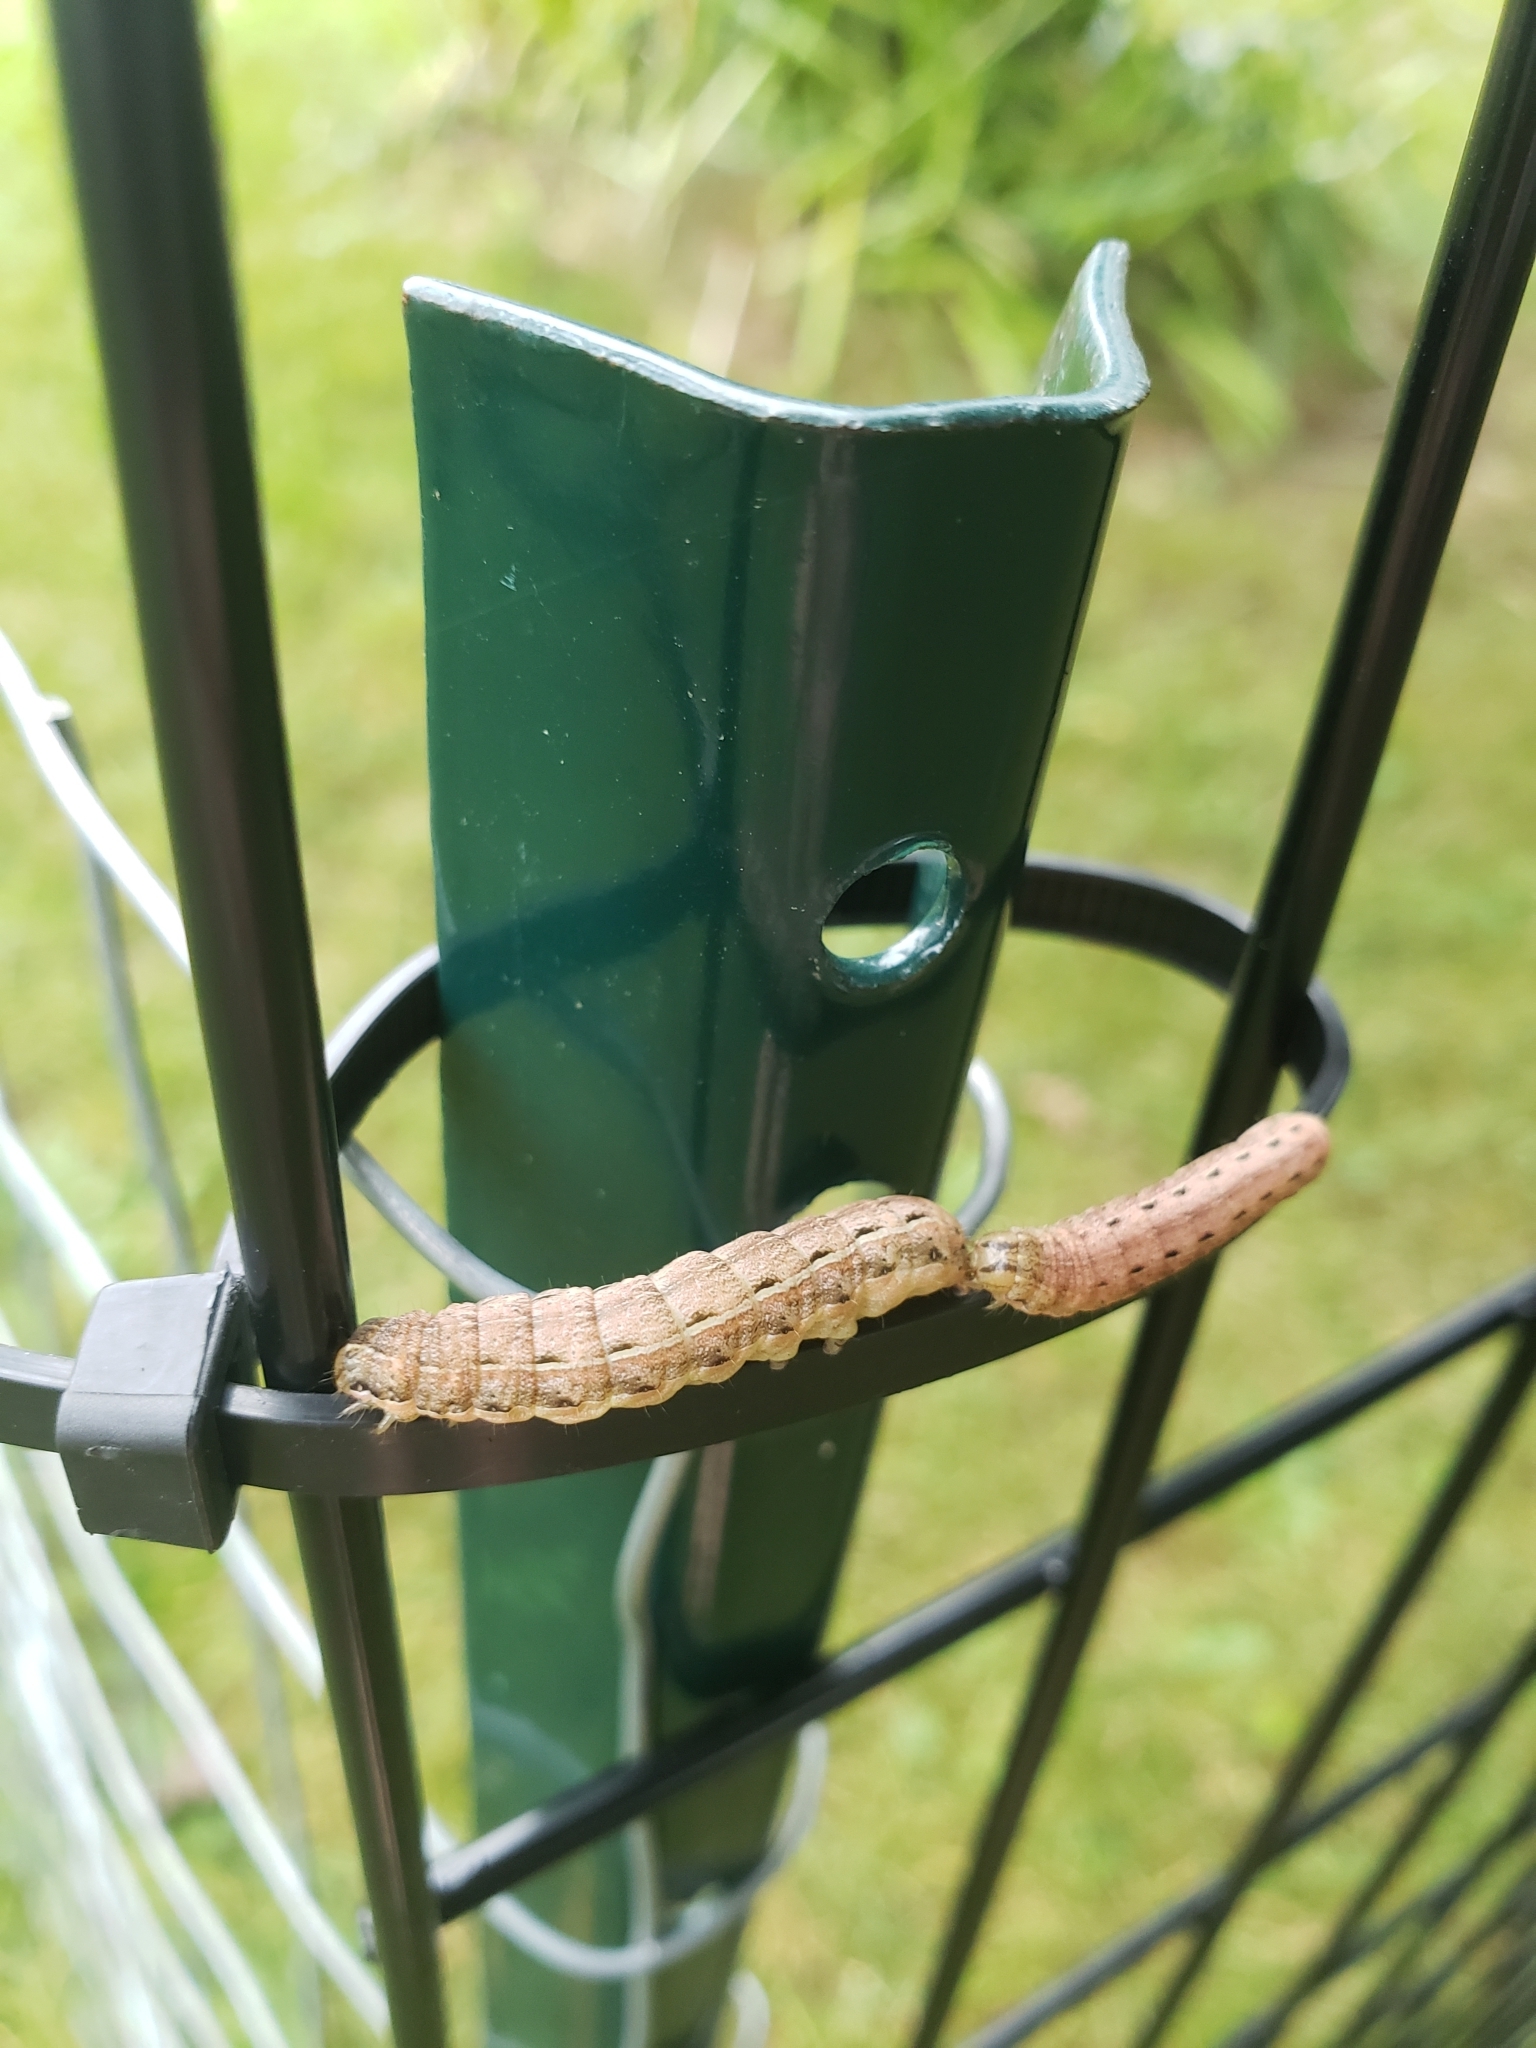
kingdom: Animalia
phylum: Arthropoda
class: Insecta
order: Lepidoptera
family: Noctuidae
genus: Noctua
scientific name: Noctua pronuba
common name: Large yellow underwing
